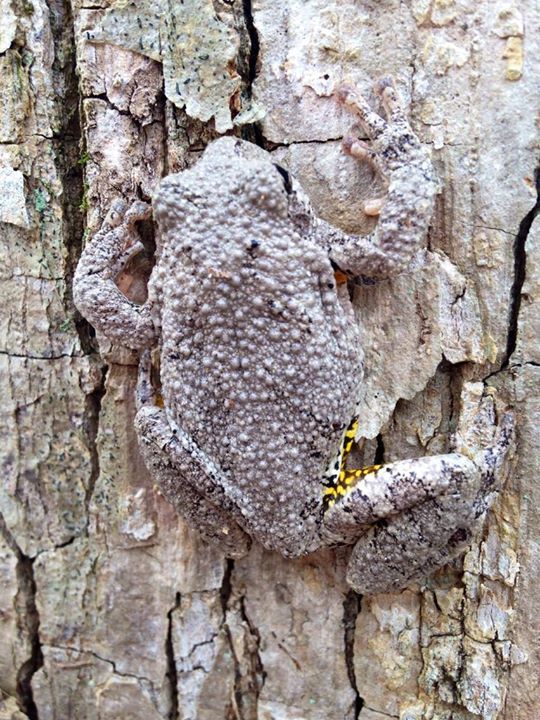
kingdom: Animalia
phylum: Chordata
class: Amphibia
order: Anura
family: Hylidae
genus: Dryophytes
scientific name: Dryophytes chrysoscelis
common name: Cope's gray treefrog
